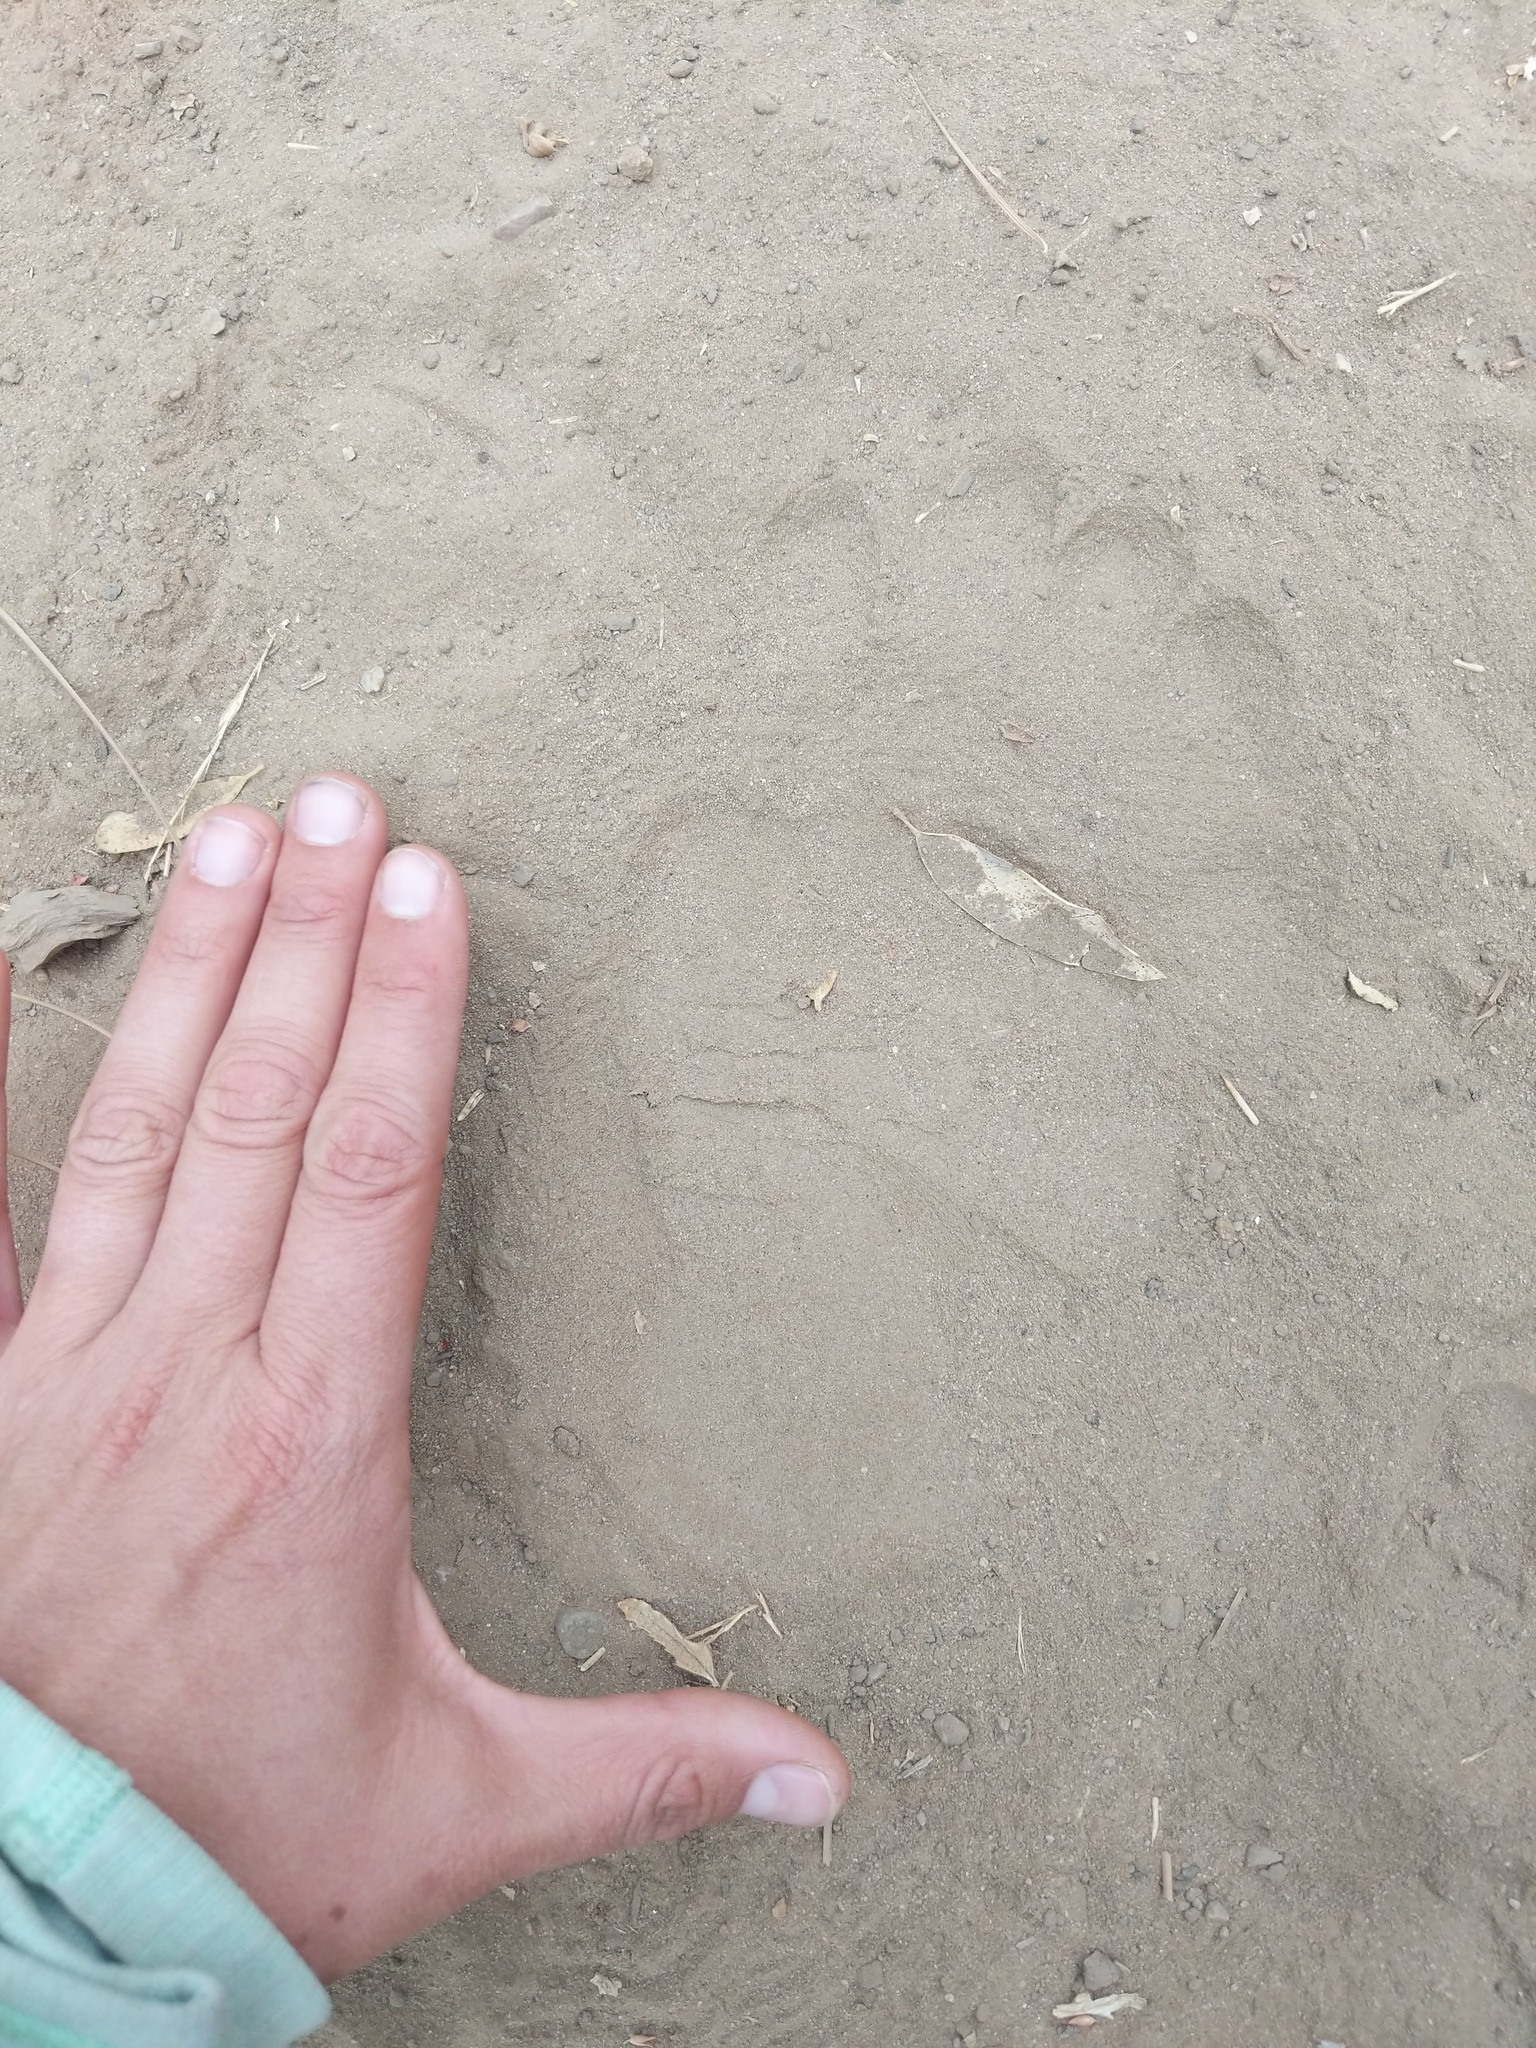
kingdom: Animalia
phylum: Chordata
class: Mammalia
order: Carnivora
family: Ursidae
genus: Ursus
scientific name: Ursus americanus
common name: American black bear
